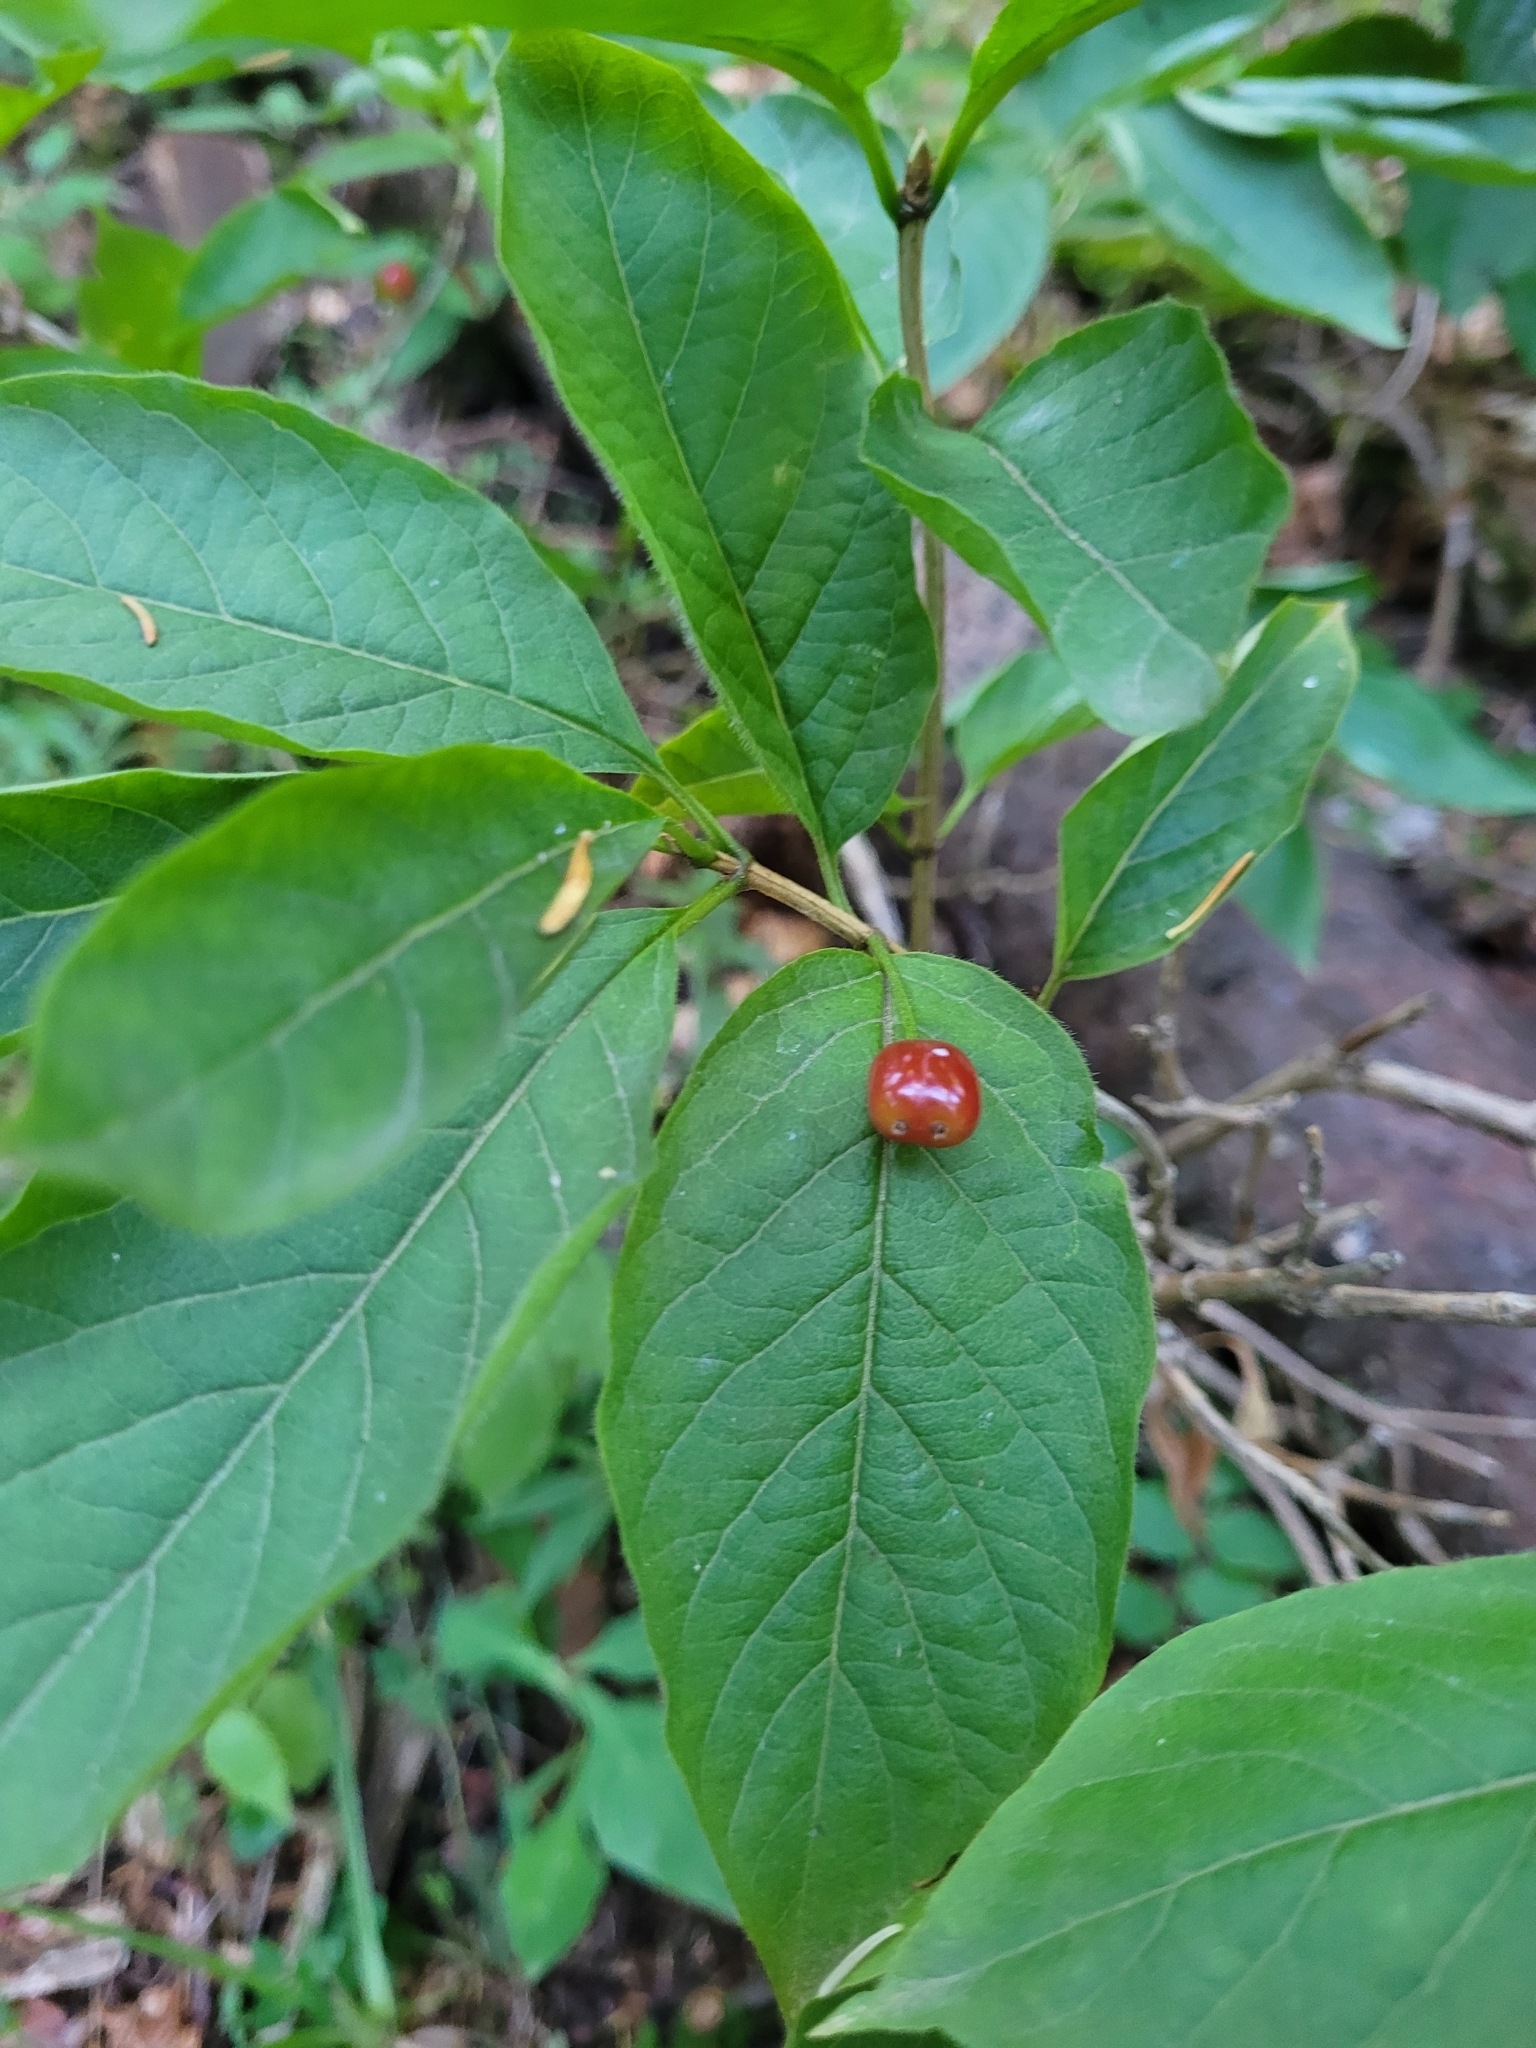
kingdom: Plantae
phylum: Tracheophyta
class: Magnoliopsida
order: Dipsacales
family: Caprifoliaceae
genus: Lonicera
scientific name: Lonicera alpigena
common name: Alpine honeysuckle
